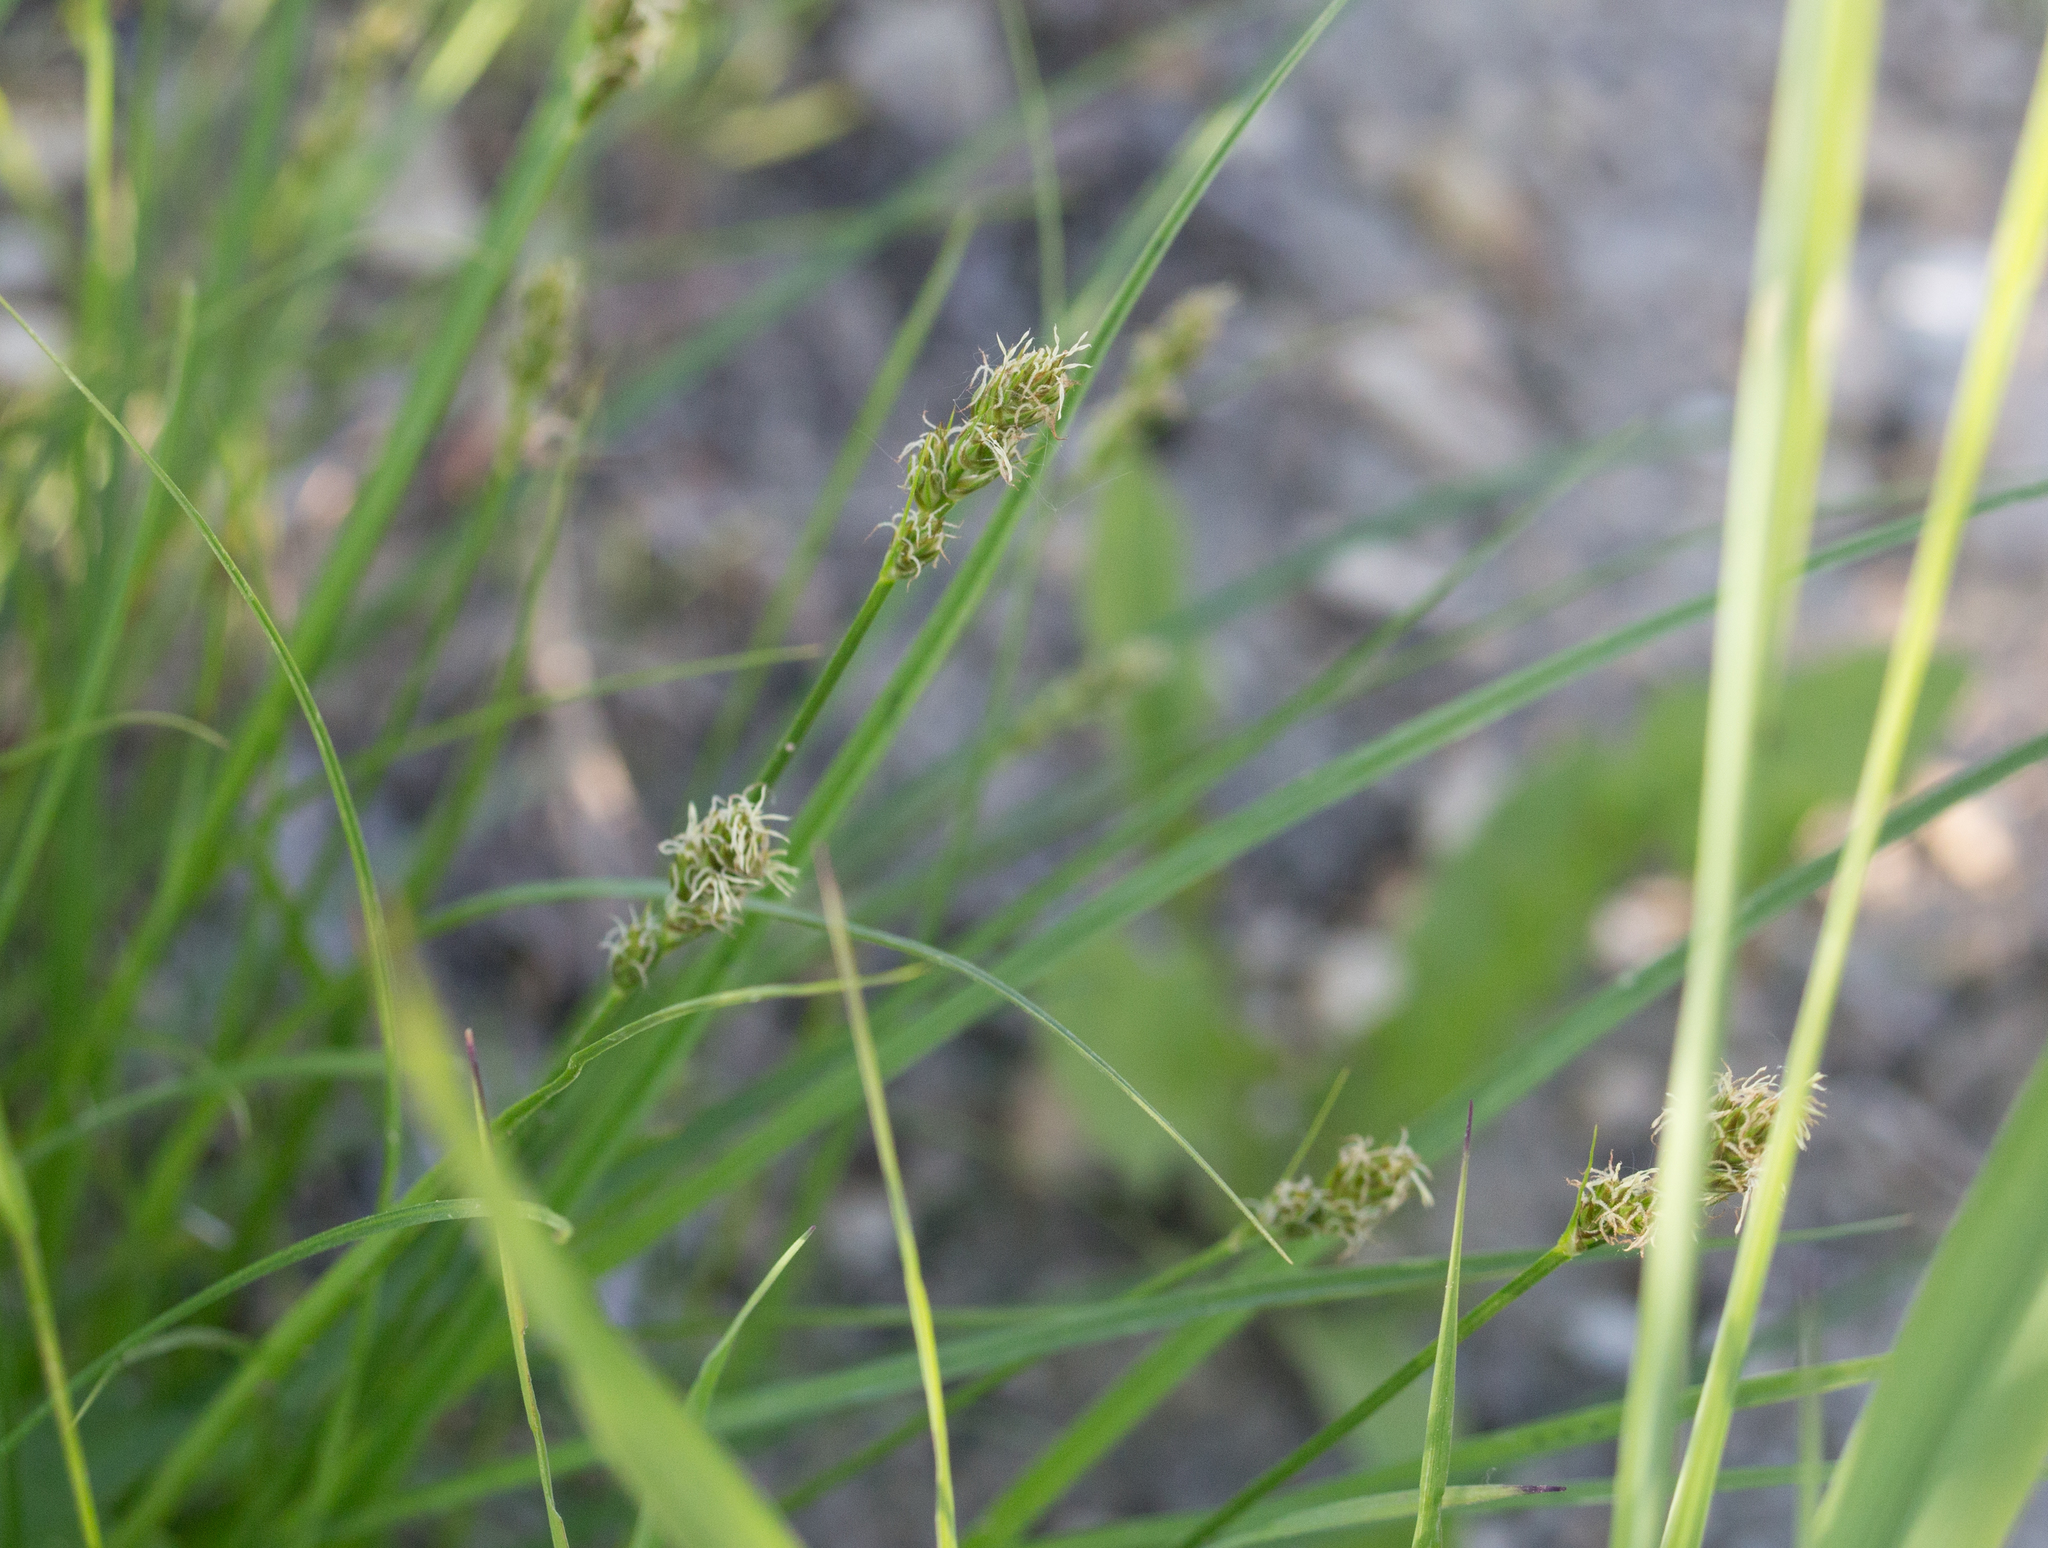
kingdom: Plantae
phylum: Tracheophyta
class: Liliopsida
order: Poales
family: Cyperaceae
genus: Carex
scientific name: Carex spicata
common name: Spiked sedge
